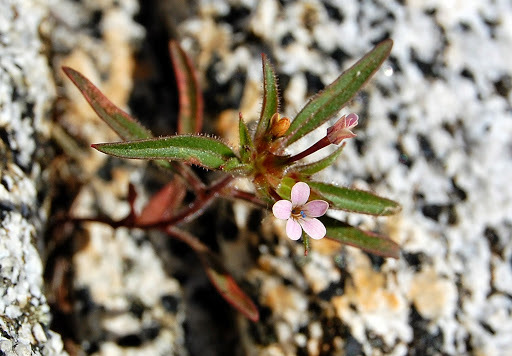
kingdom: Plantae
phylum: Tracheophyta
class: Magnoliopsida
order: Ericales
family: Polemoniaceae
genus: Collomia
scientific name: Collomia tracyi
